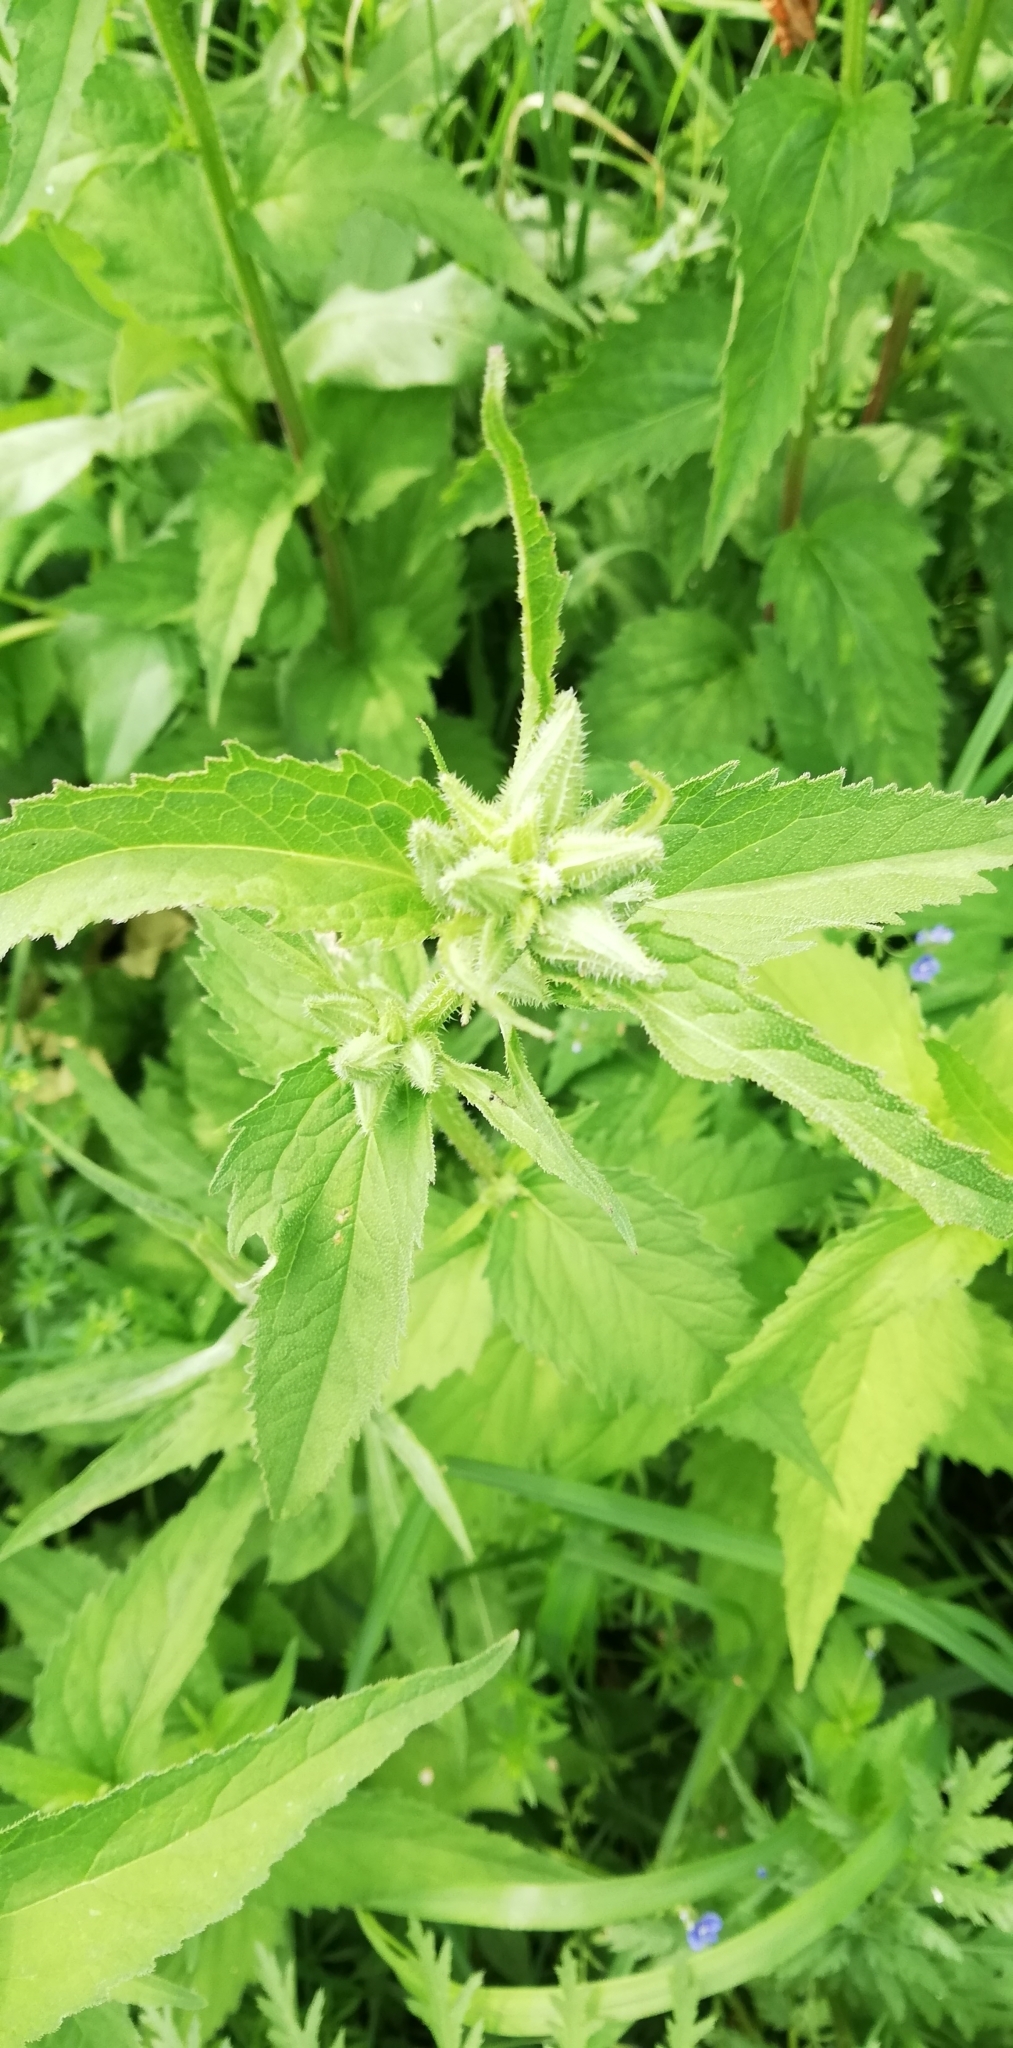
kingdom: Plantae
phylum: Tracheophyta
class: Magnoliopsida
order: Asterales
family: Campanulaceae
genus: Campanula
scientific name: Campanula trachelium
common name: Nettle-leaved bellflower
